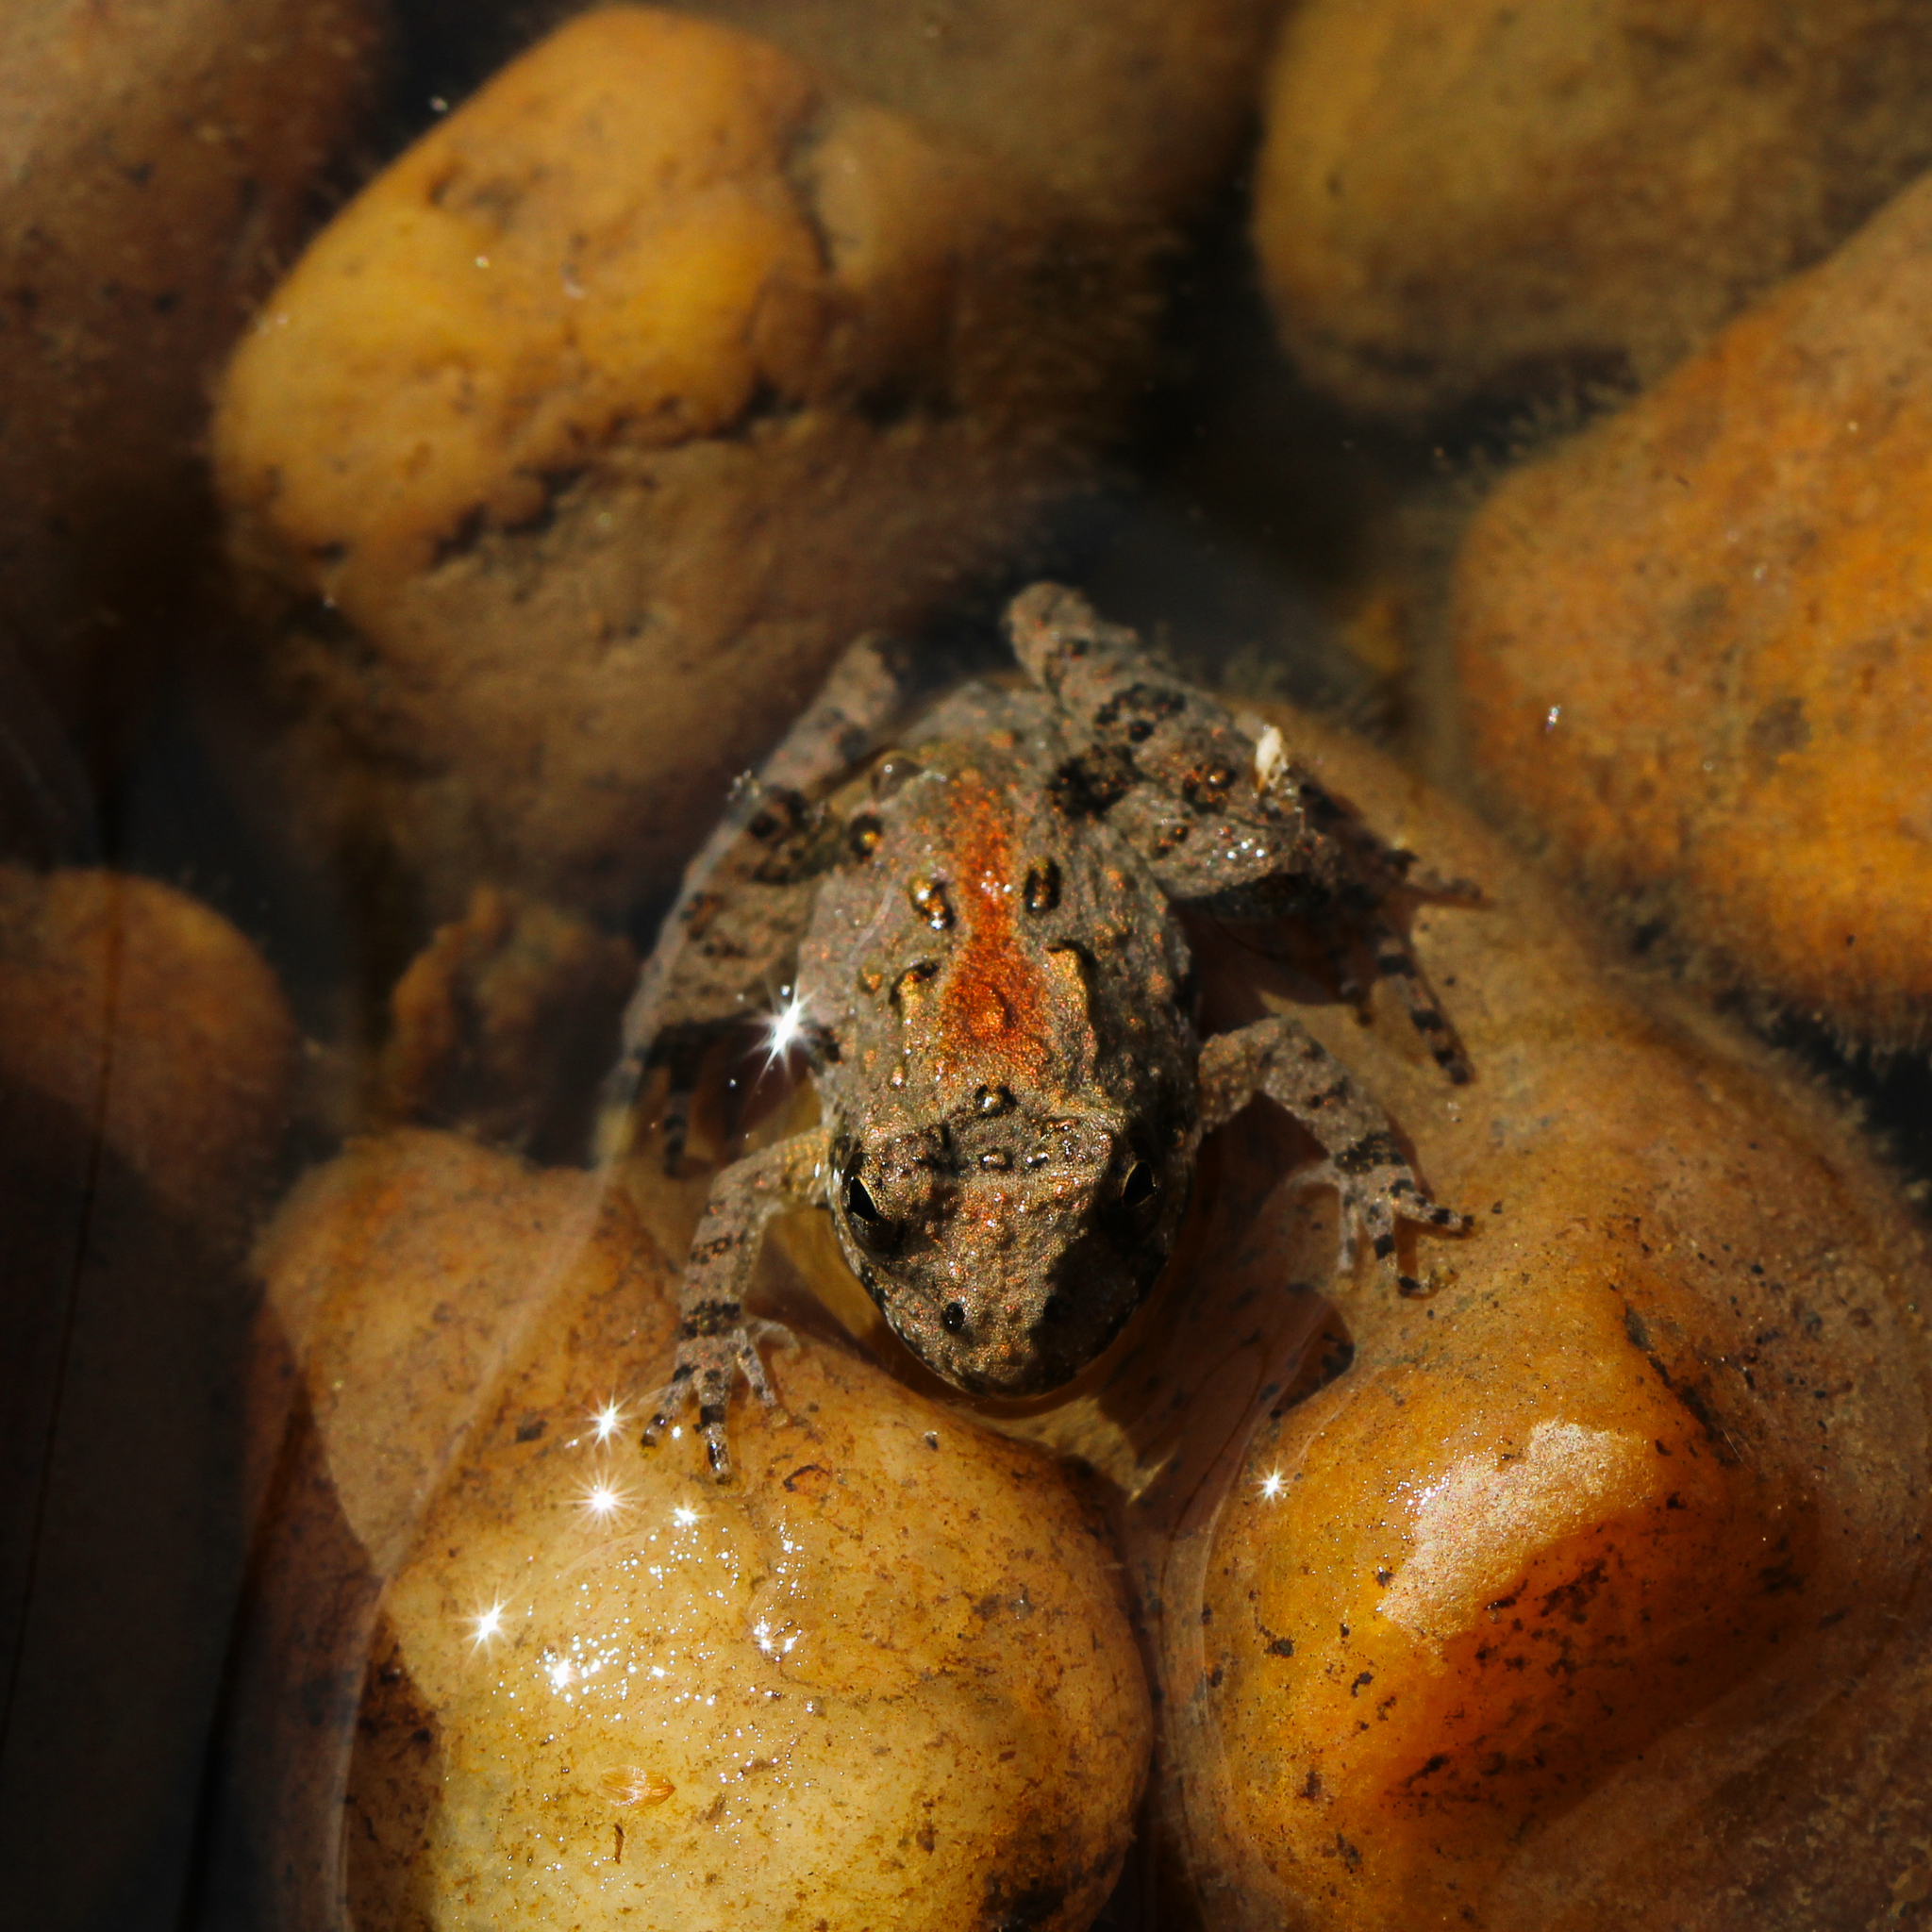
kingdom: Animalia
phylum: Chordata
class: Amphibia
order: Anura
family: Hylidae
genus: Acris
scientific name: Acris crepitans
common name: Northern cricket frog
